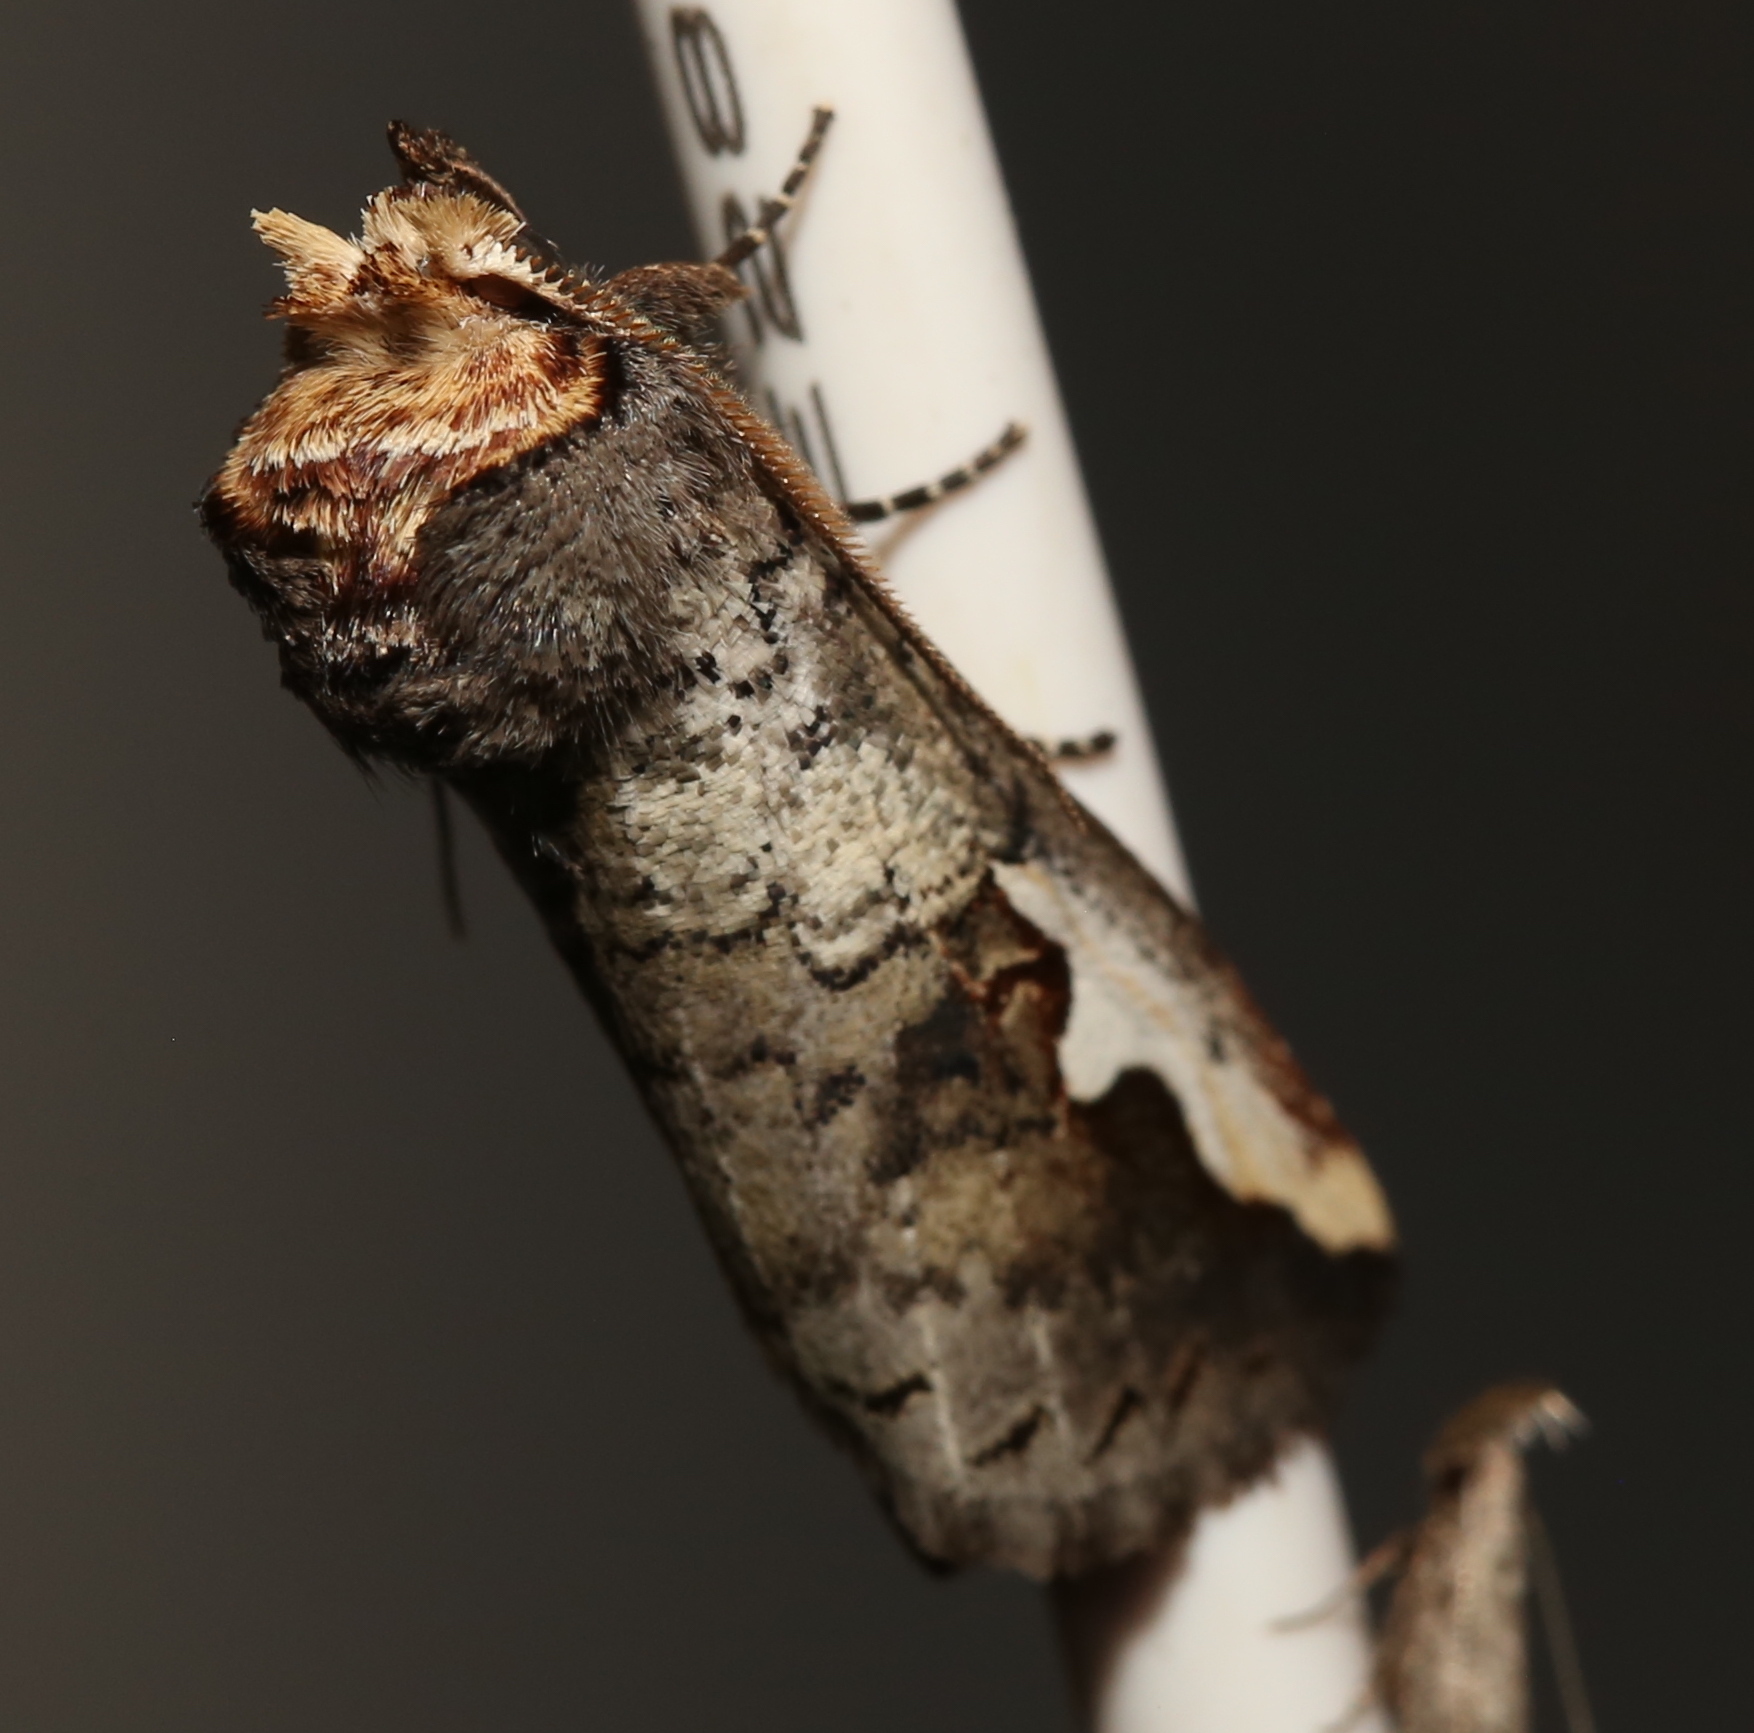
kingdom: Animalia
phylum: Arthropoda
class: Insecta
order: Lepidoptera
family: Notodontidae
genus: Symmerista
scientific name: Symmerista albifrons
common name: White-headed prominent
